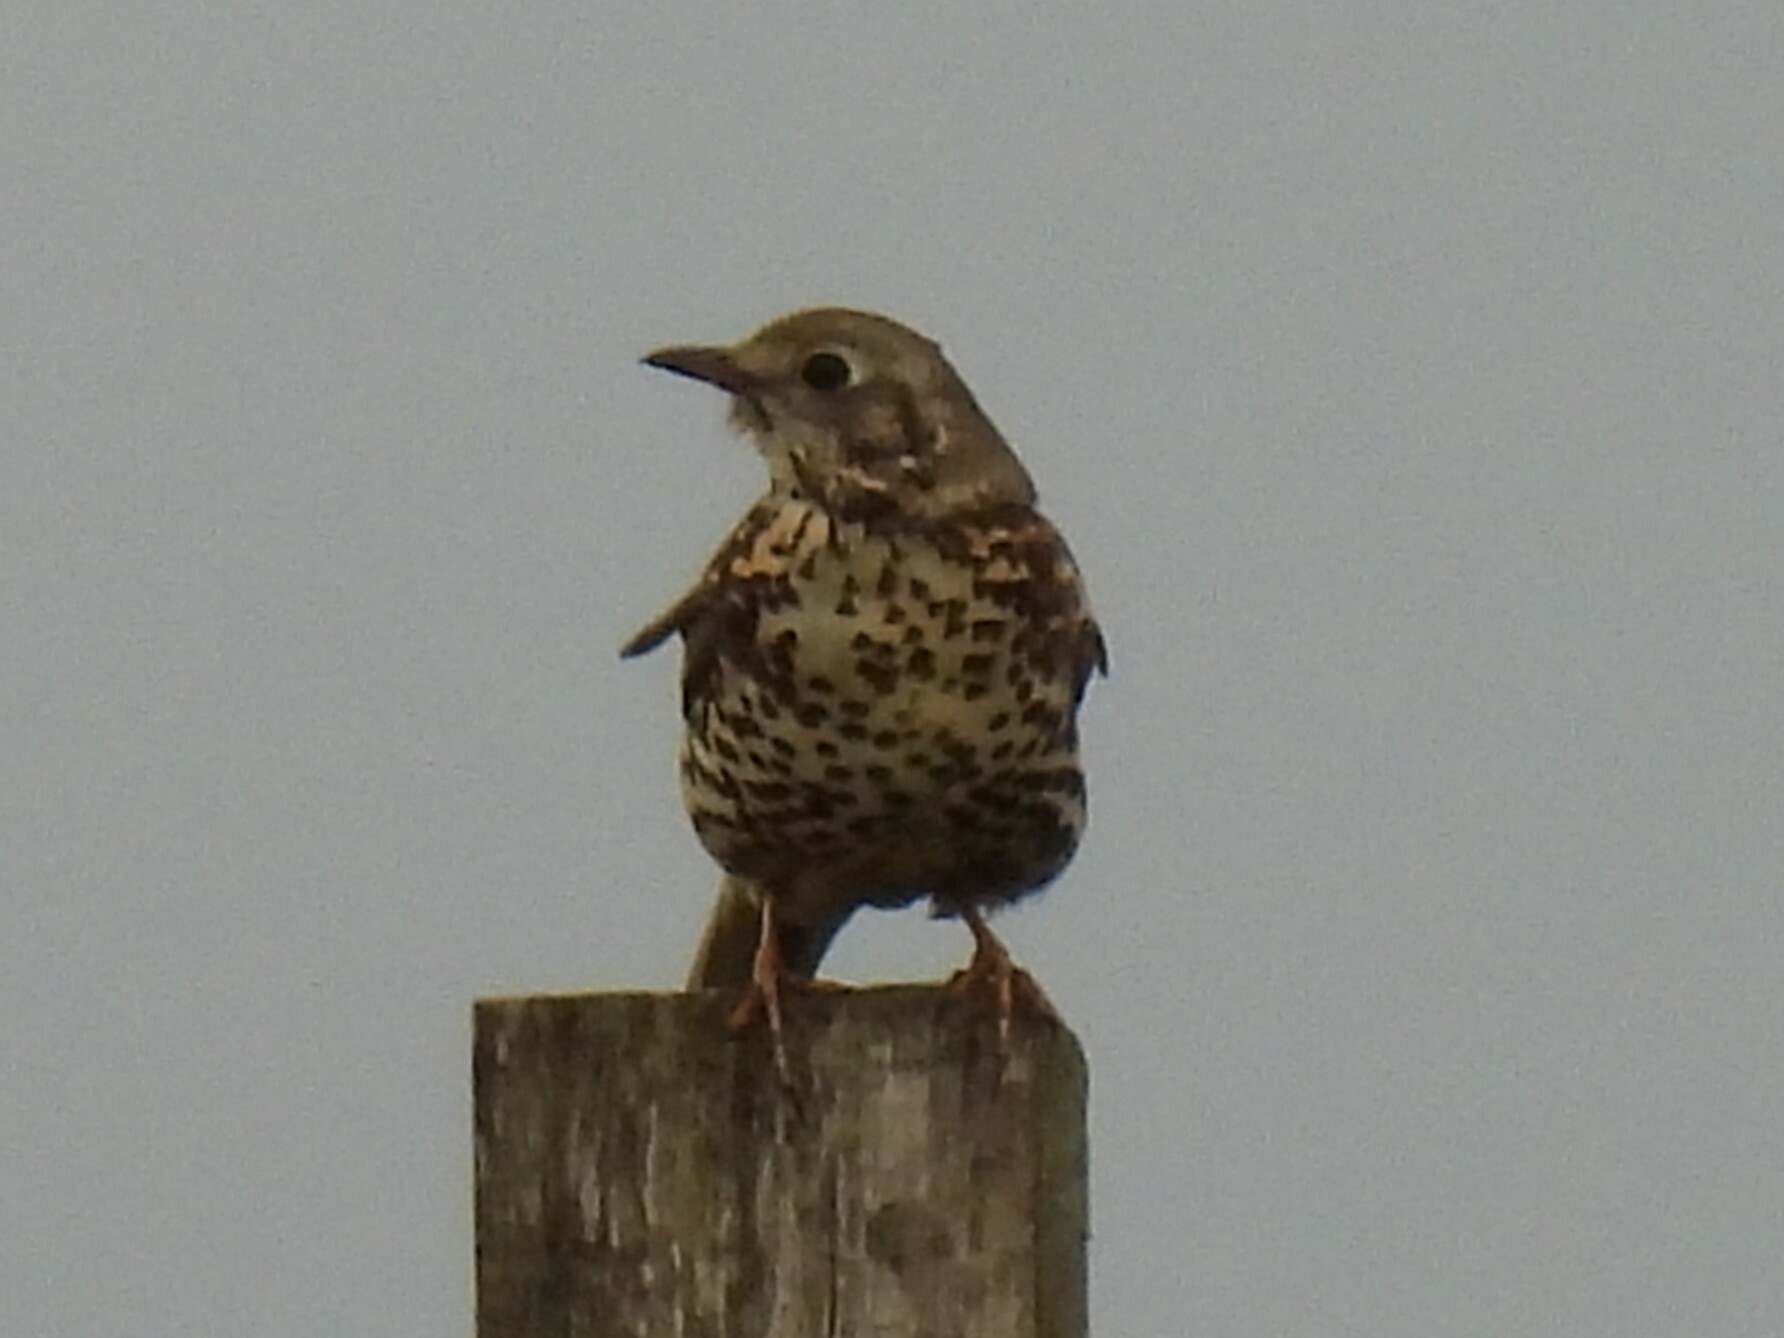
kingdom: Animalia
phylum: Chordata
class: Aves
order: Passeriformes
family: Turdidae
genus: Turdus
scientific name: Turdus viscivorus
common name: Mistle thrush
